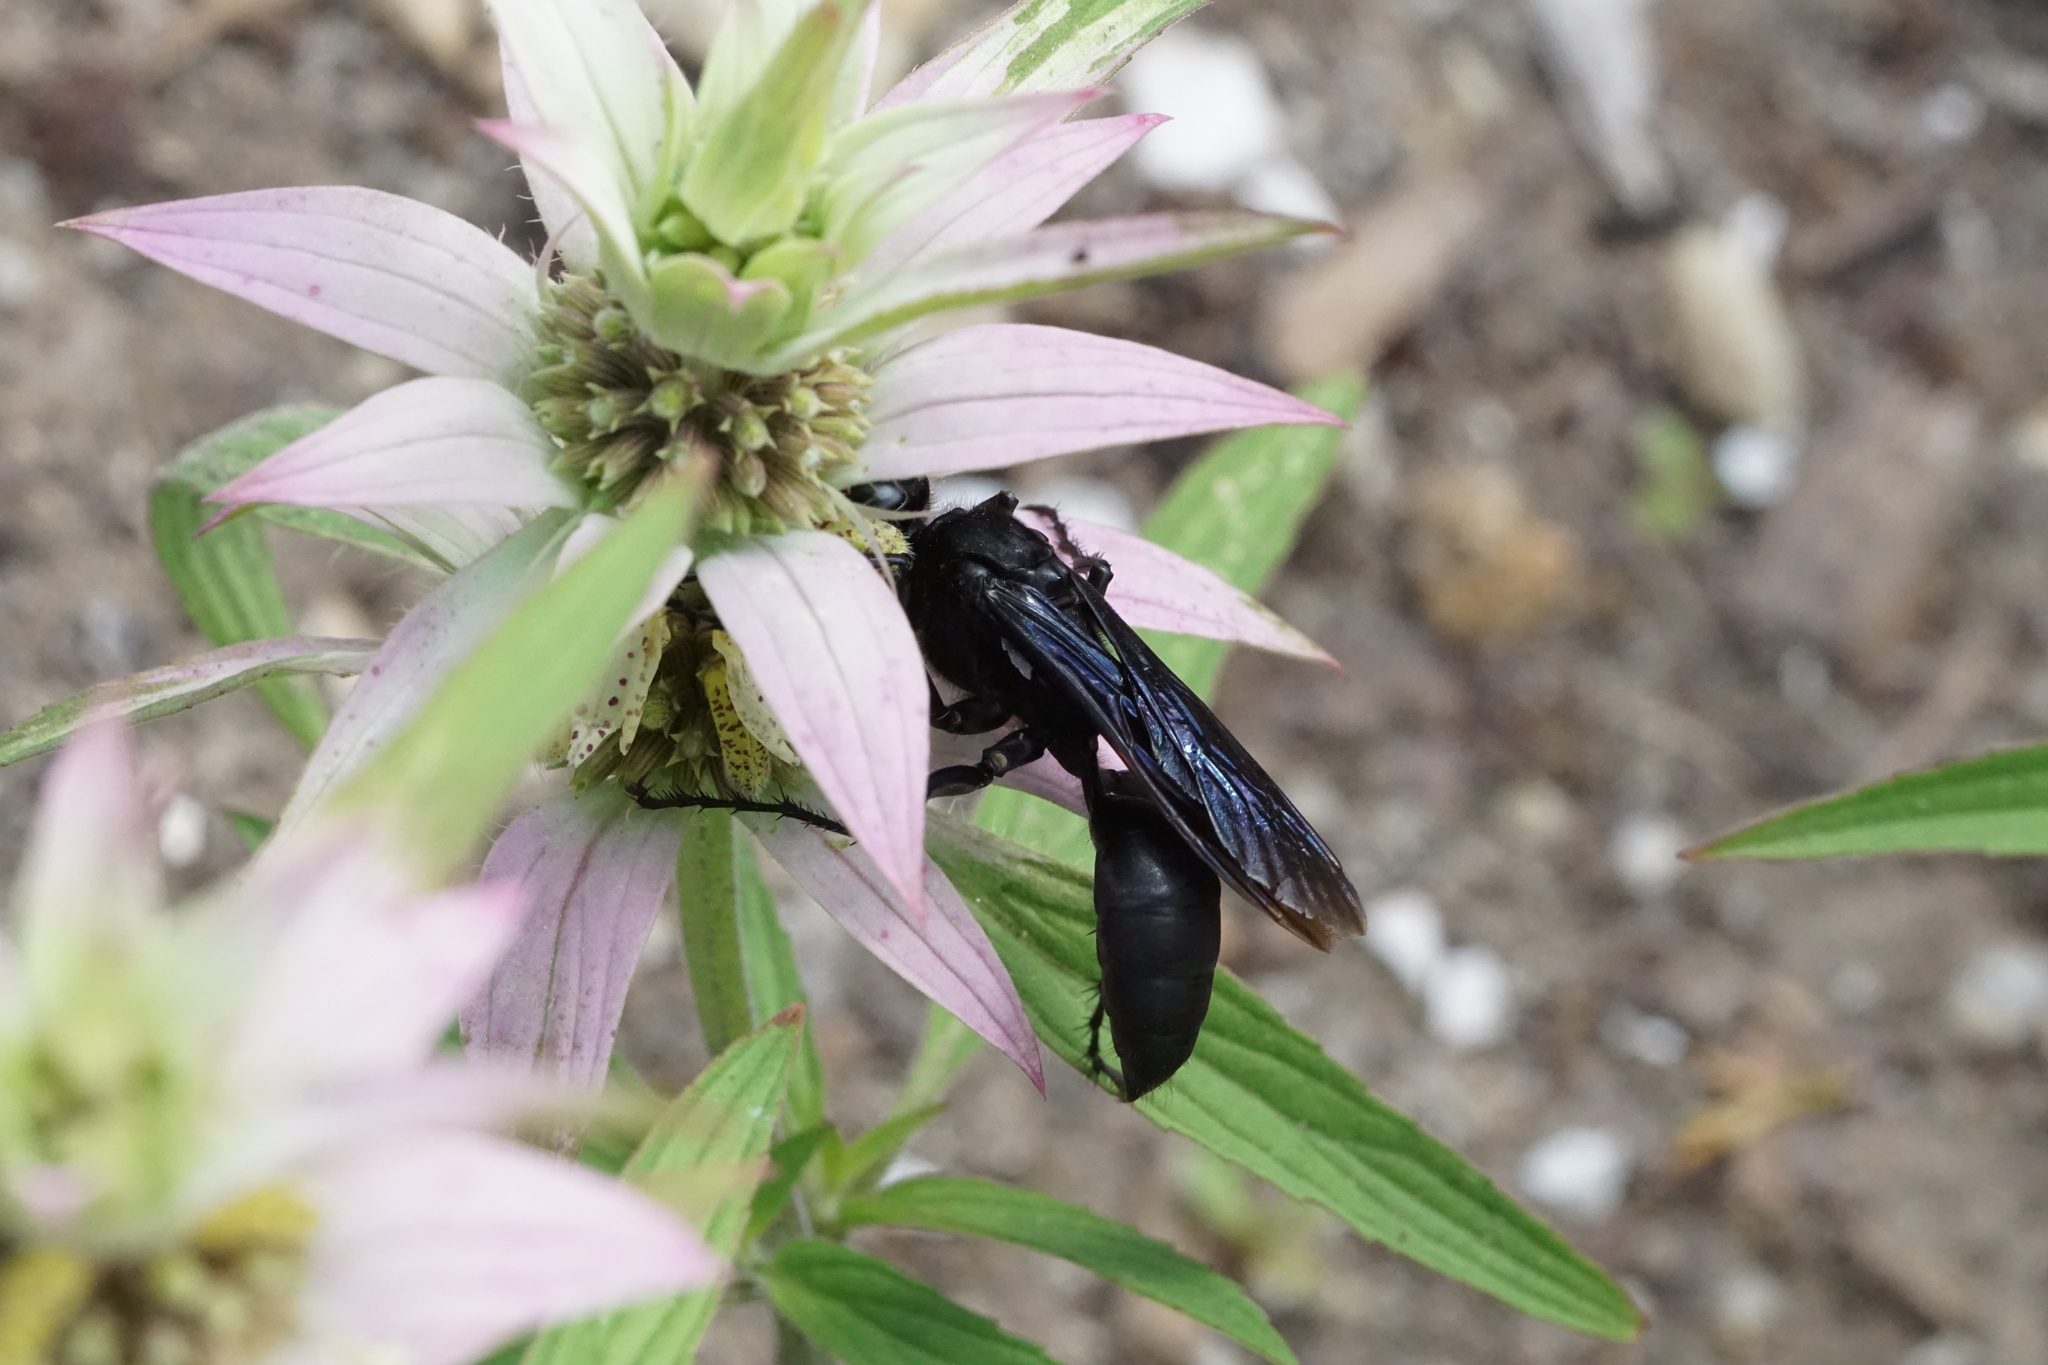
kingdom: Animalia
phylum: Arthropoda
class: Insecta
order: Hymenoptera
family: Sphecidae
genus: Sphex
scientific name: Sphex pensylvanicus
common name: Great black digger wasp
